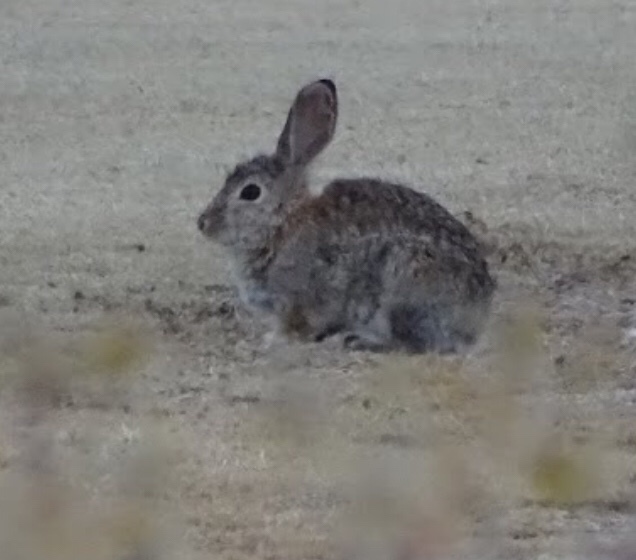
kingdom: Animalia
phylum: Chordata
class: Mammalia
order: Lagomorpha
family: Leporidae
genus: Sylvilagus
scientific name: Sylvilagus audubonii
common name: Desert cottontail
